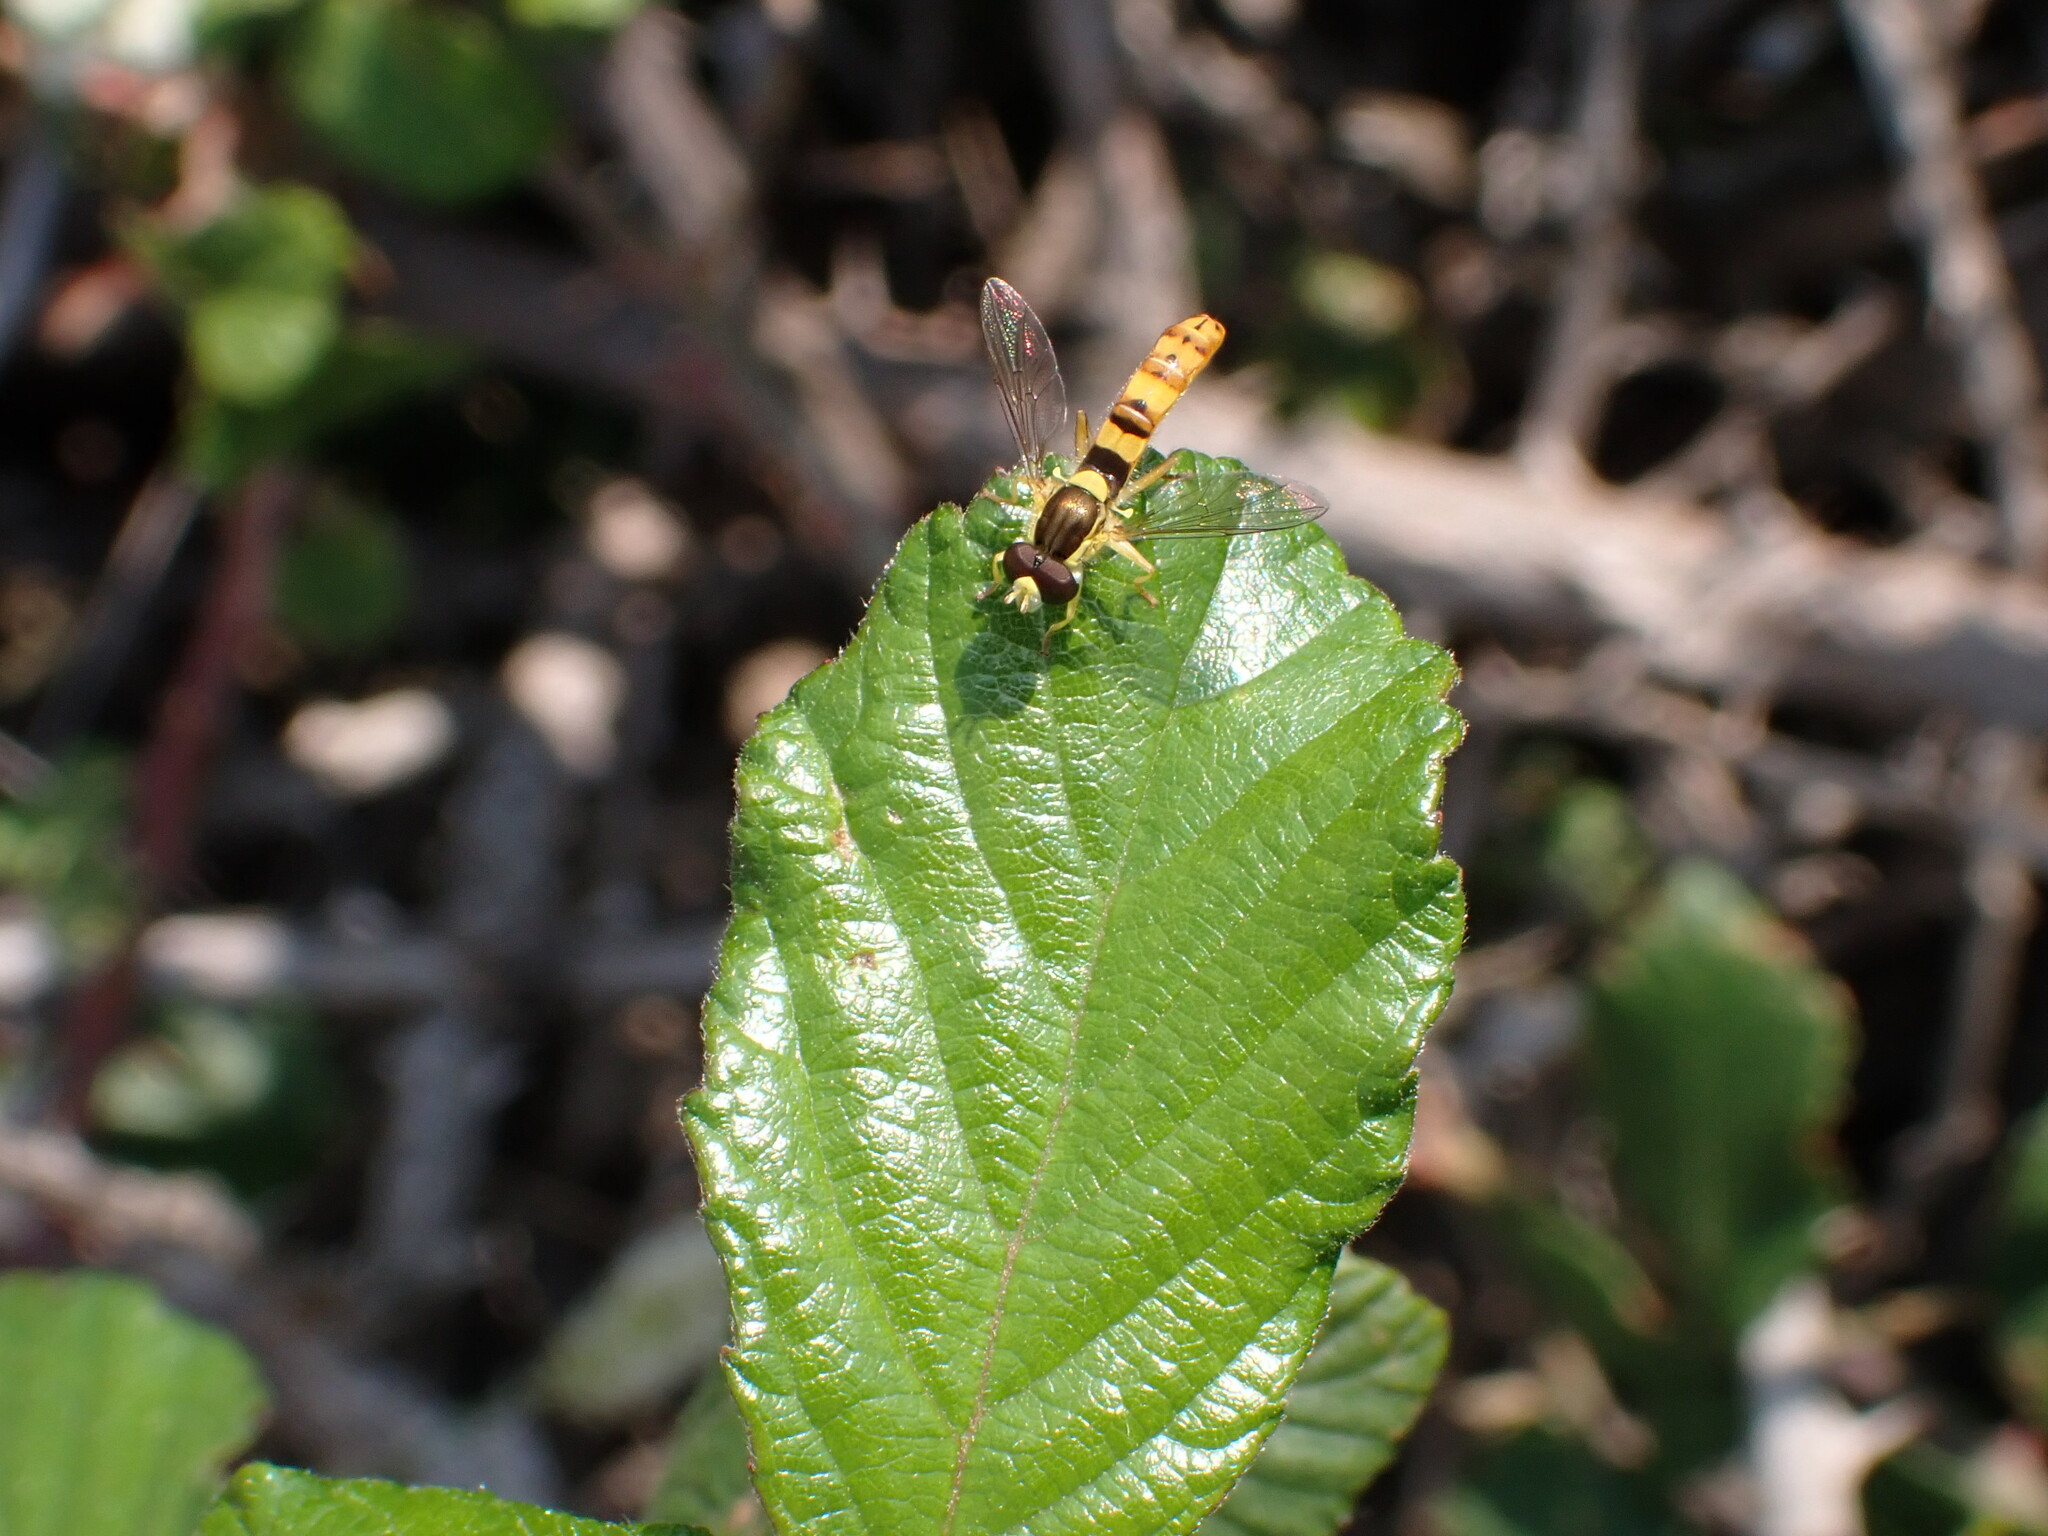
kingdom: Animalia
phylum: Arthropoda
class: Insecta
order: Diptera
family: Syrphidae
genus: Sphaerophoria
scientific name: Sphaerophoria scripta
